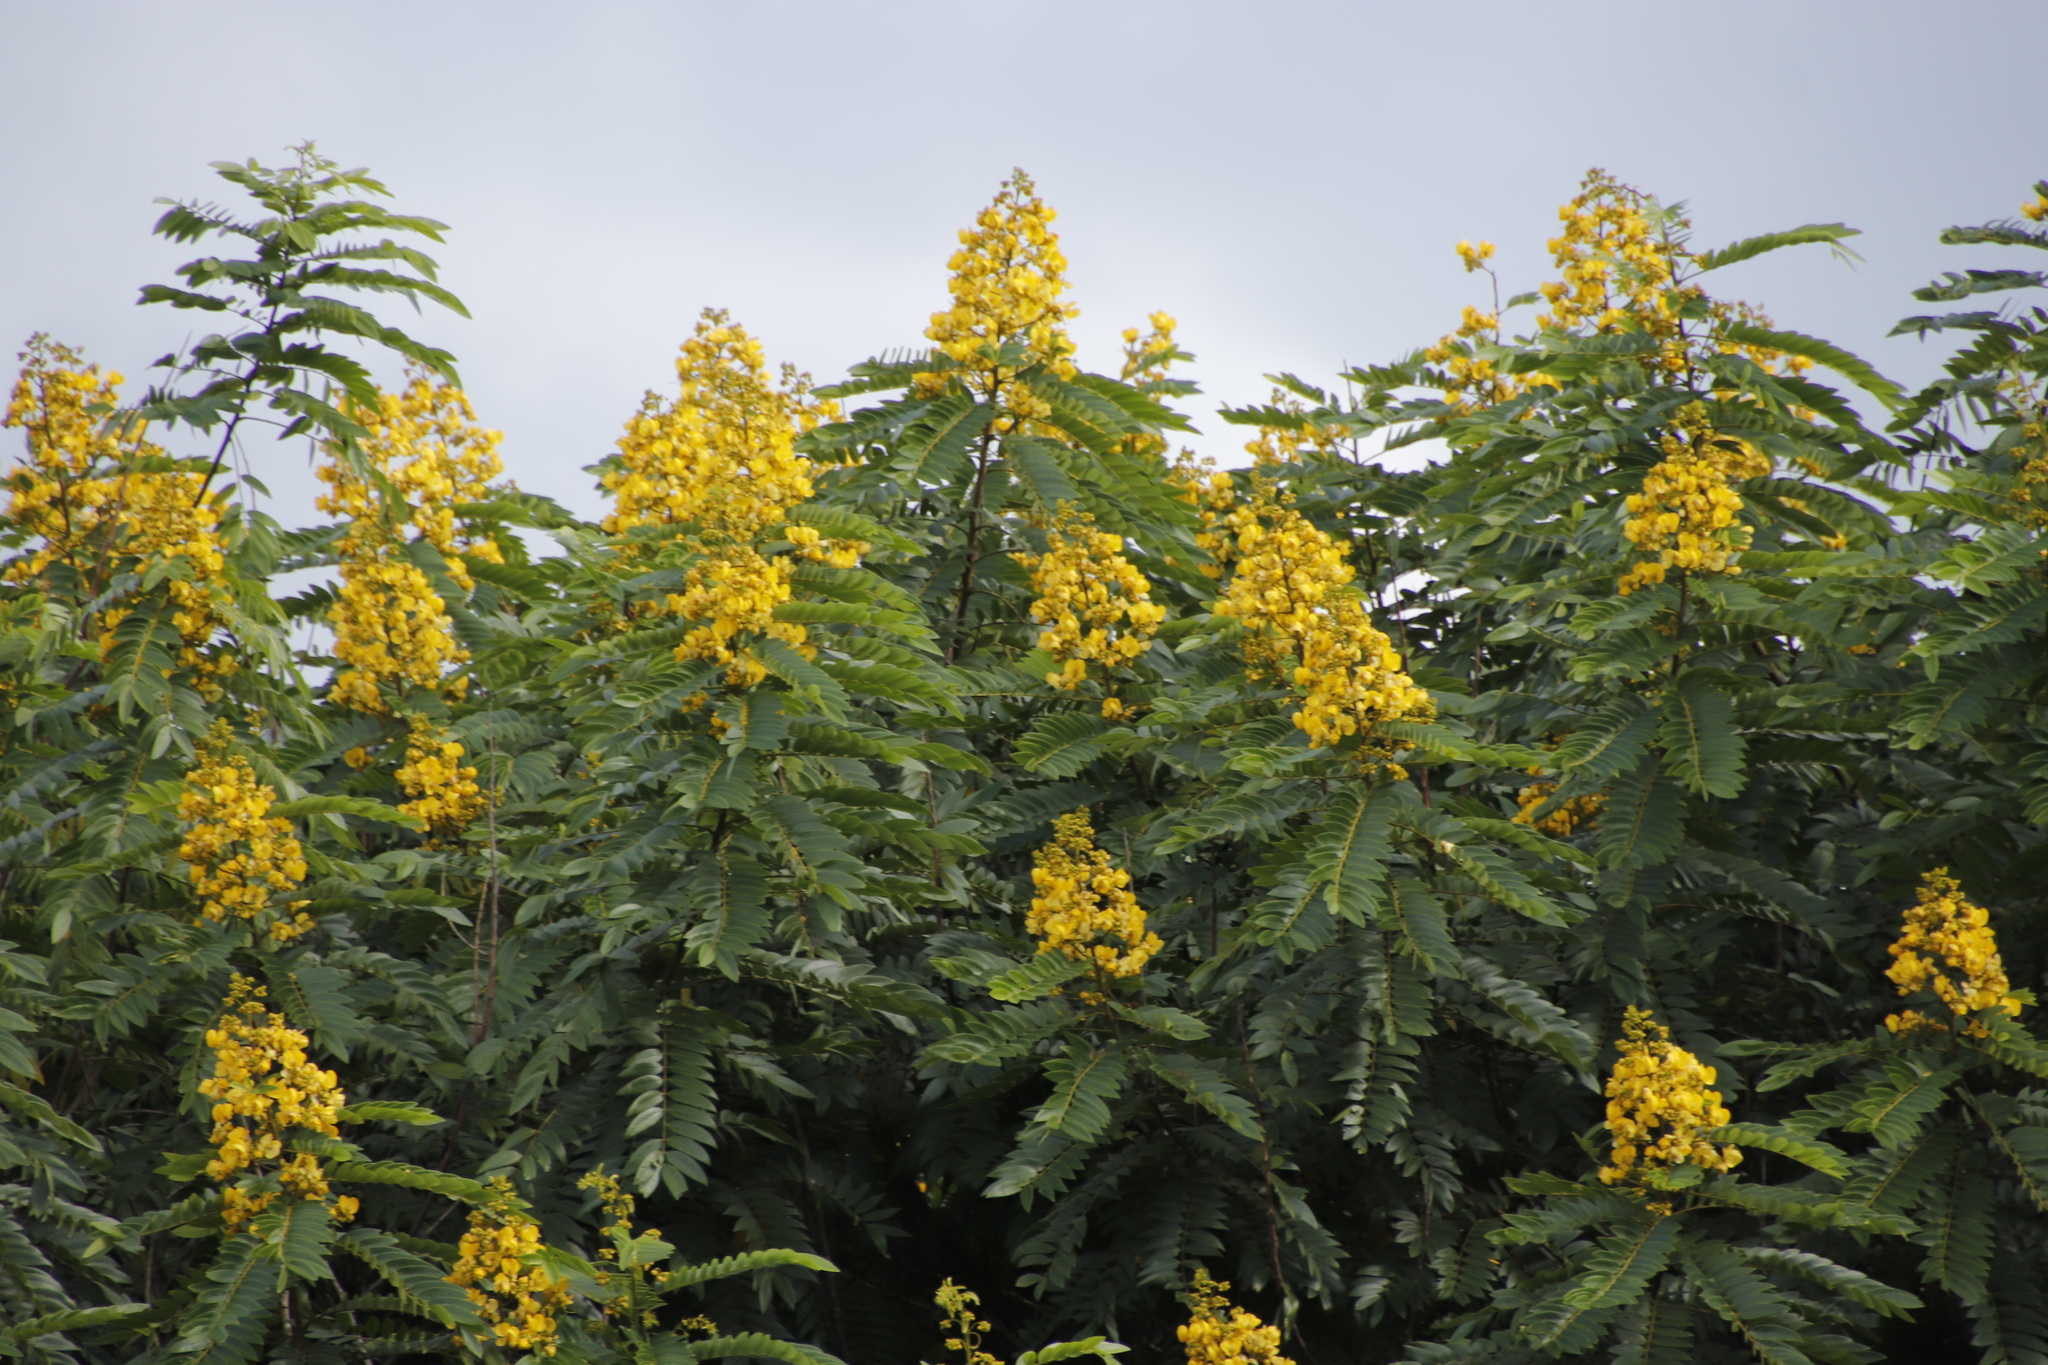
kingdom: Plantae
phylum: Tracheophyta
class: Magnoliopsida
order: Fabales
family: Fabaceae
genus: Senna
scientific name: Senna spectabilis
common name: Casia amarilla
